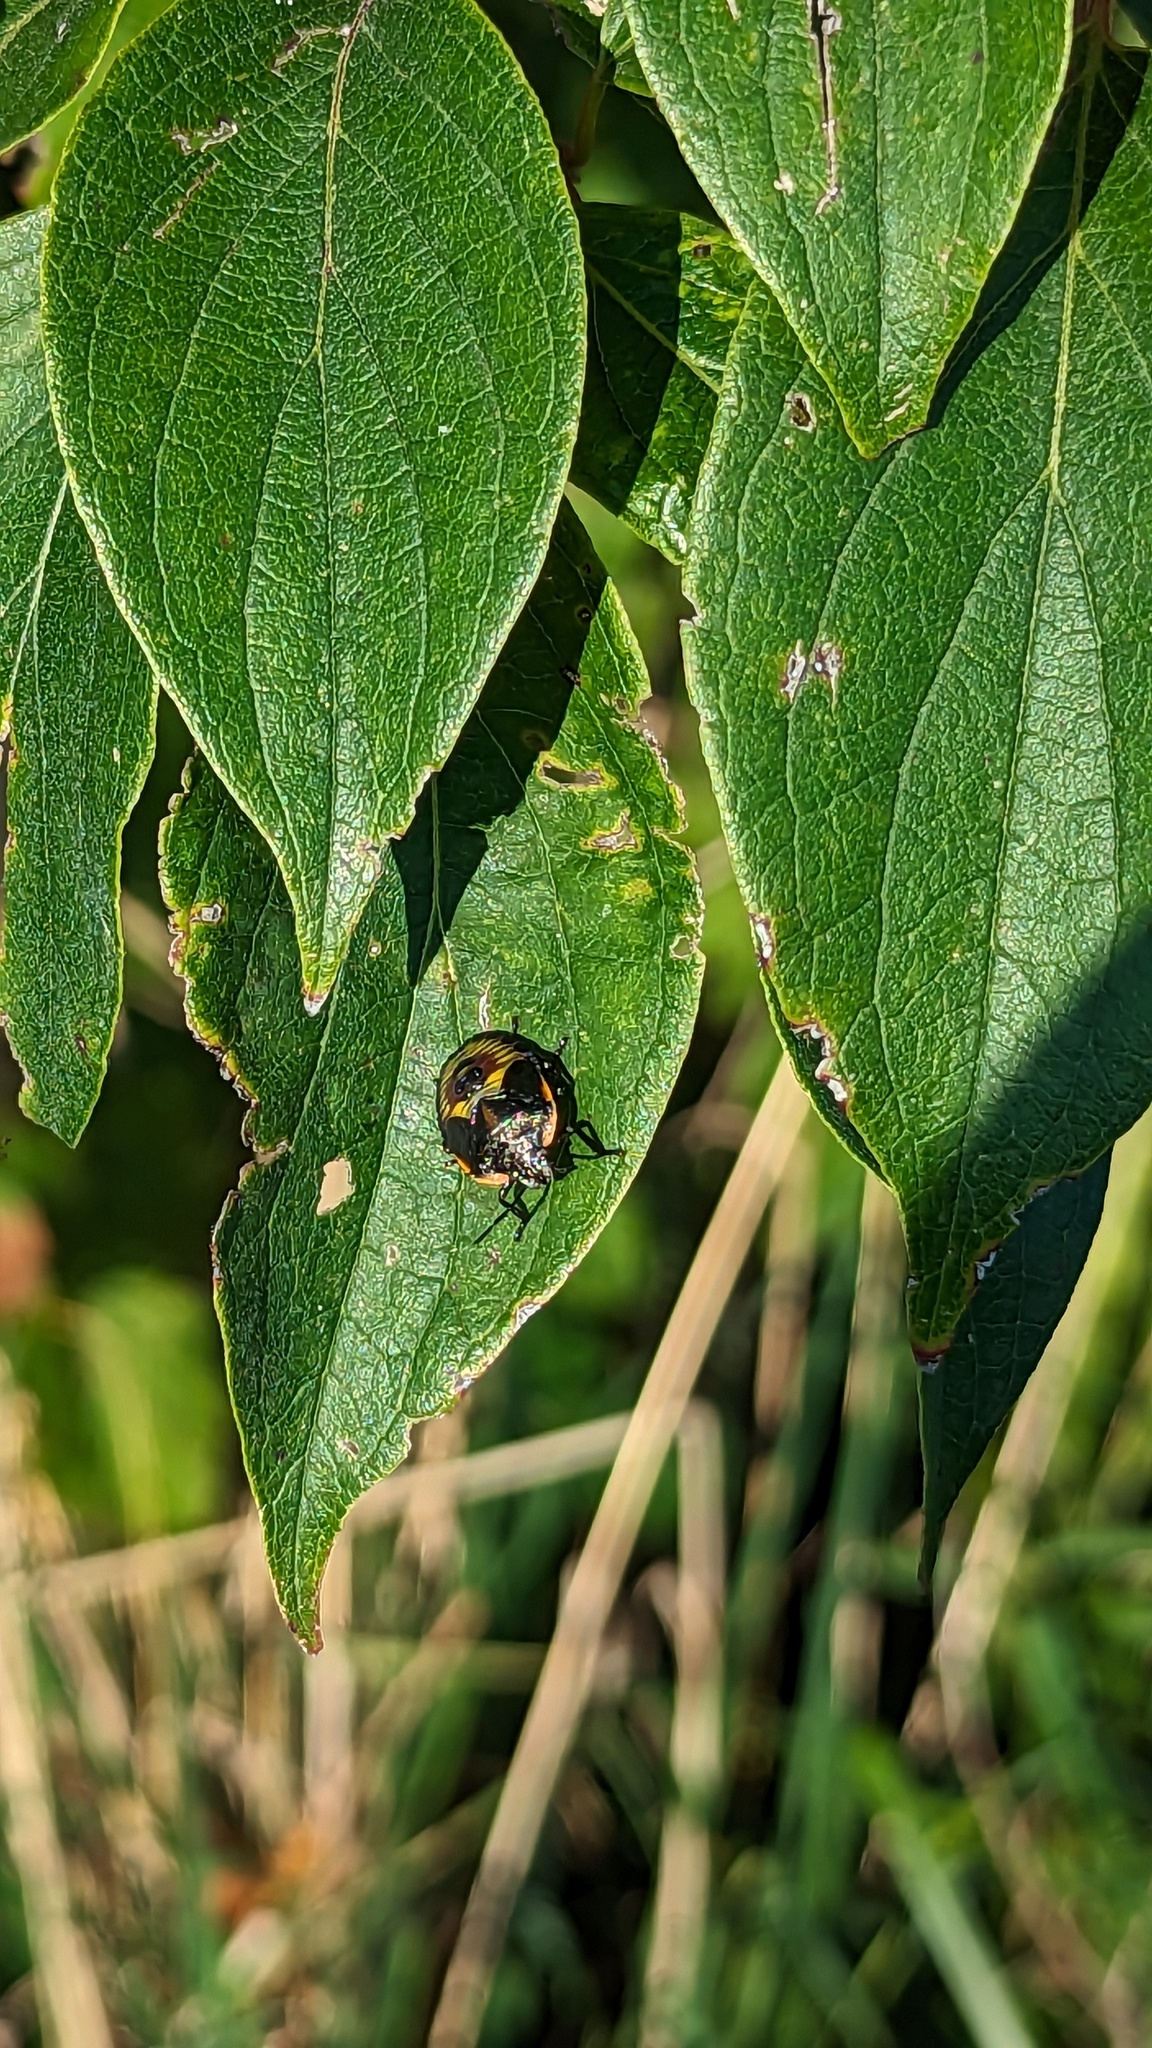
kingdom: Animalia
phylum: Arthropoda
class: Insecta
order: Hemiptera
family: Pentatomidae
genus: Chinavia
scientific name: Chinavia hilaris
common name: Green stink bug
